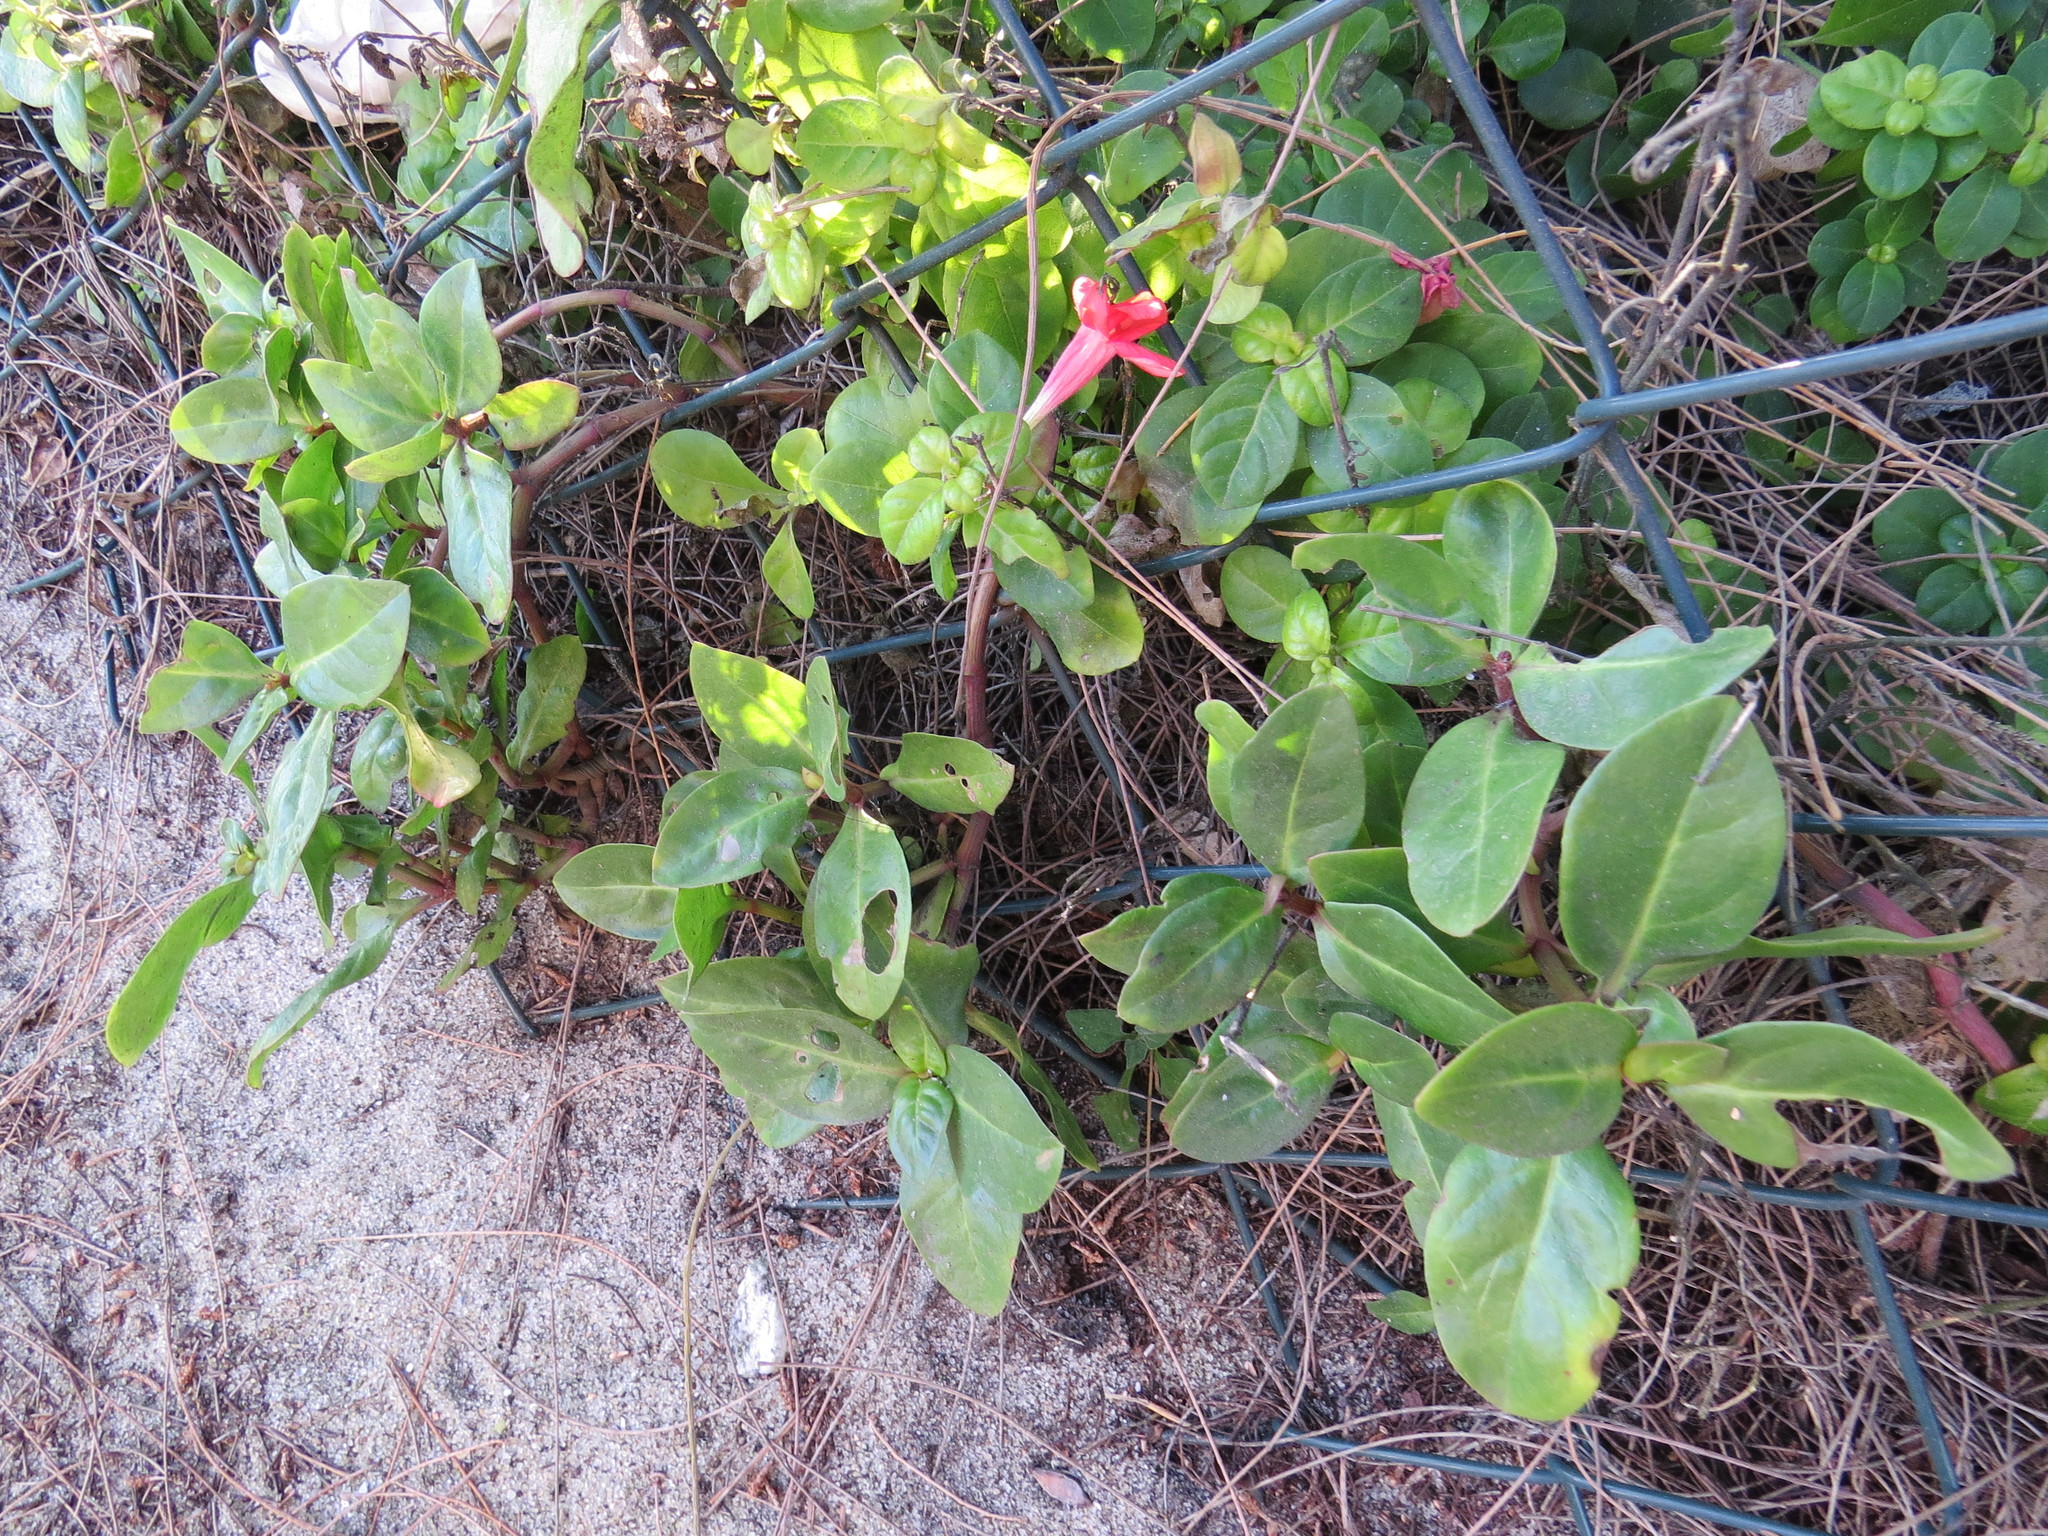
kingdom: Plantae
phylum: Tracheophyta
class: Magnoliopsida
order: Lamiales
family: Acanthaceae
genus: Barleria
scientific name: Barleria repens
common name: Pink-ruellia
